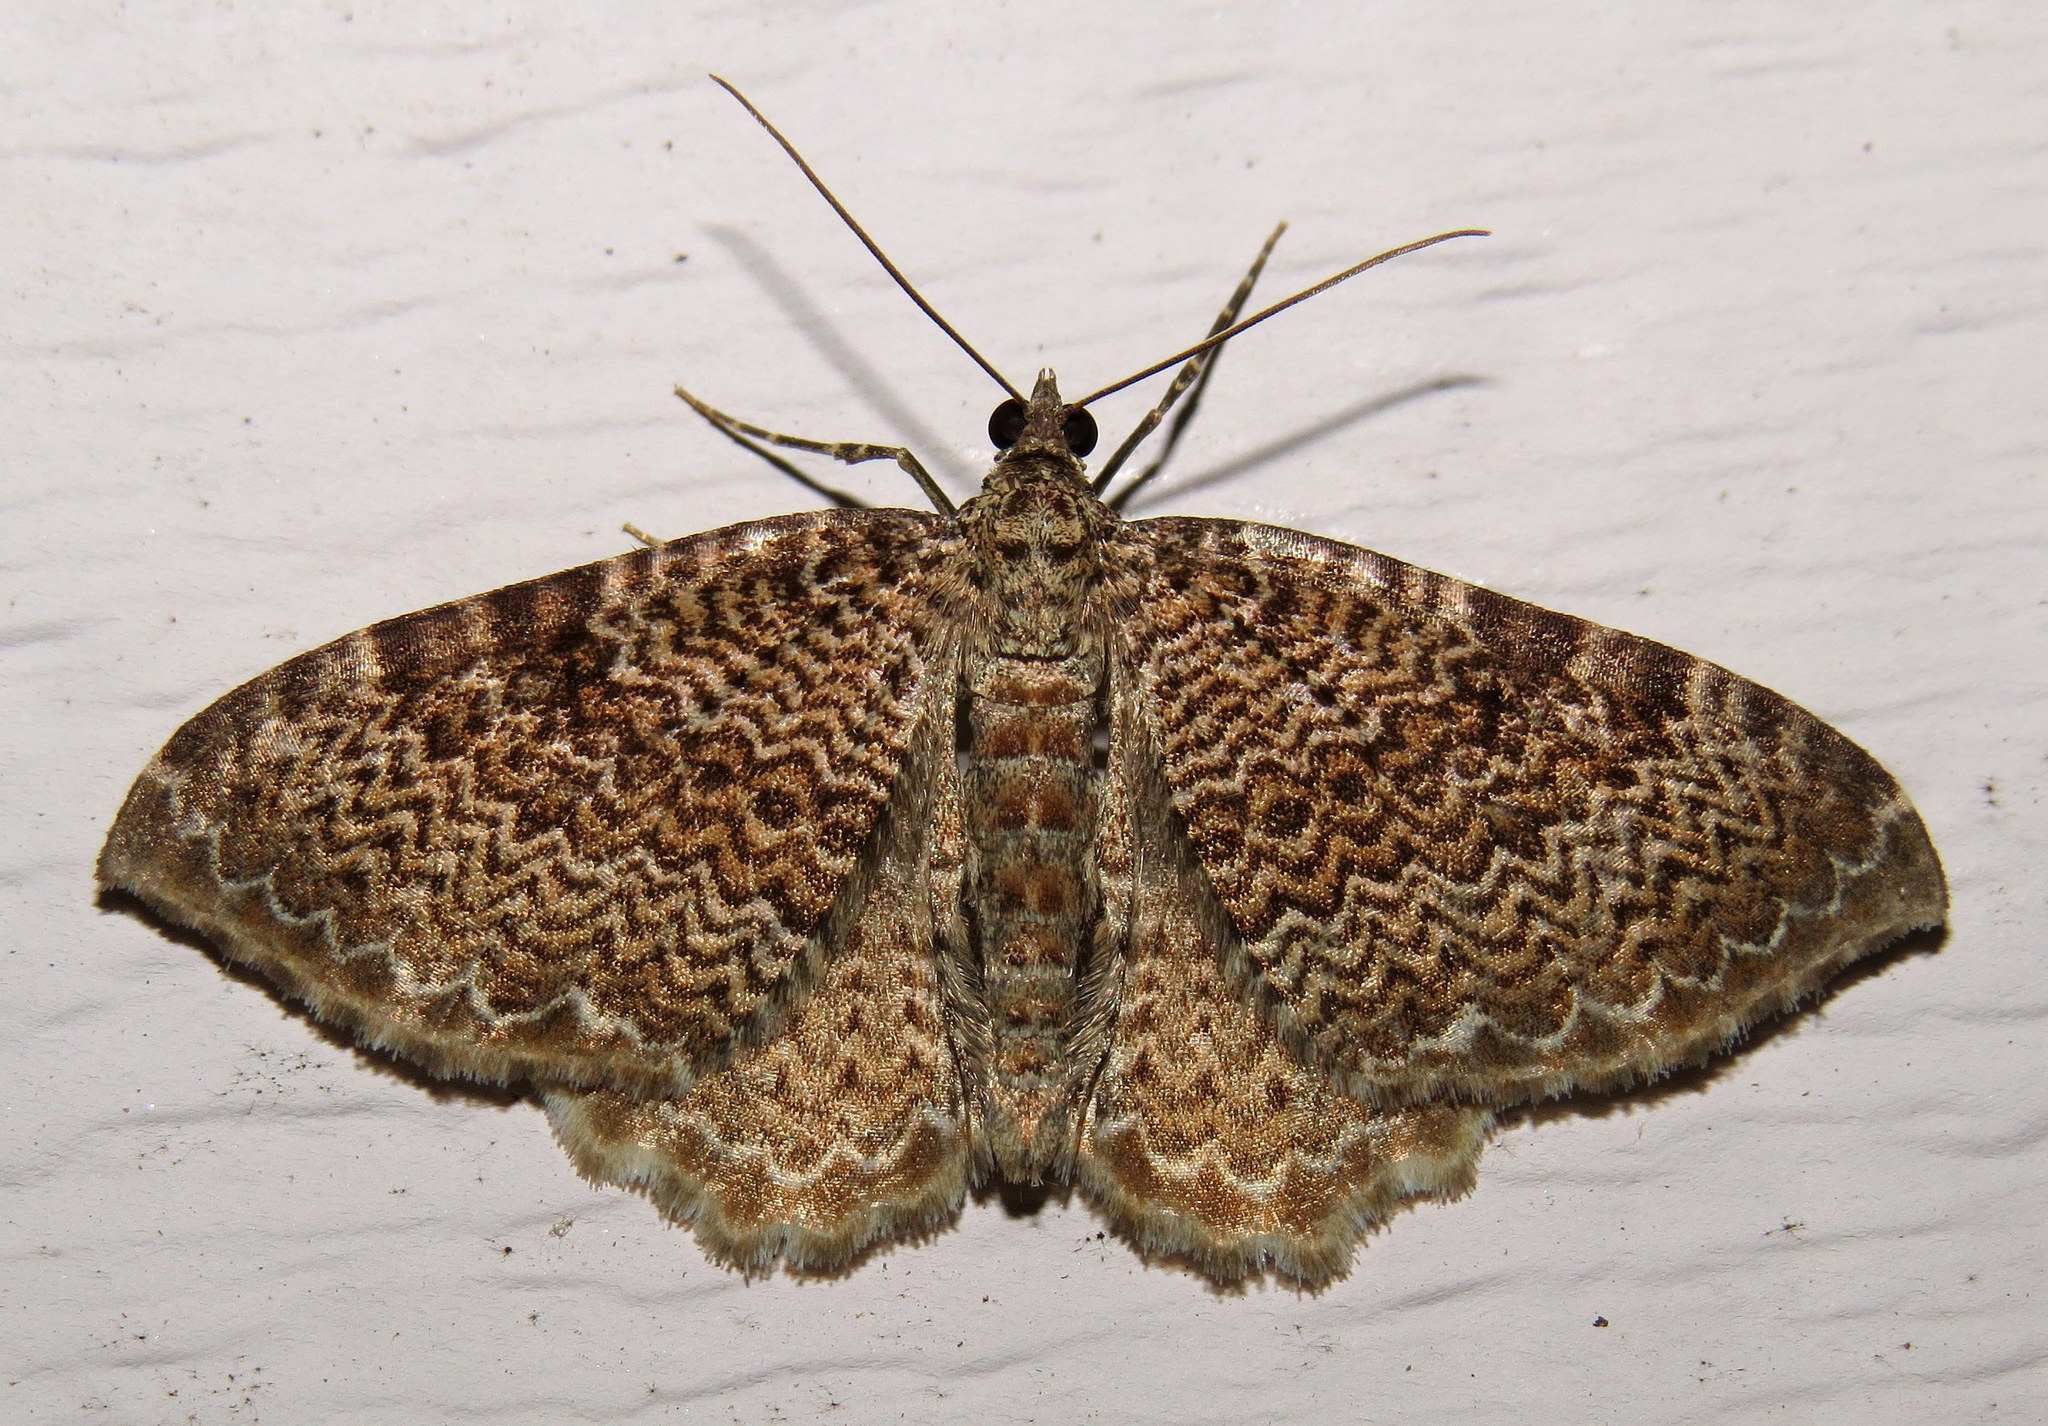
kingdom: Animalia
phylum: Arthropoda
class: Insecta
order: Lepidoptera
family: Geometridae
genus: Rheumaptera
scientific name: Rheumaptera prunivorata
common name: Cherry scallop shell moth
